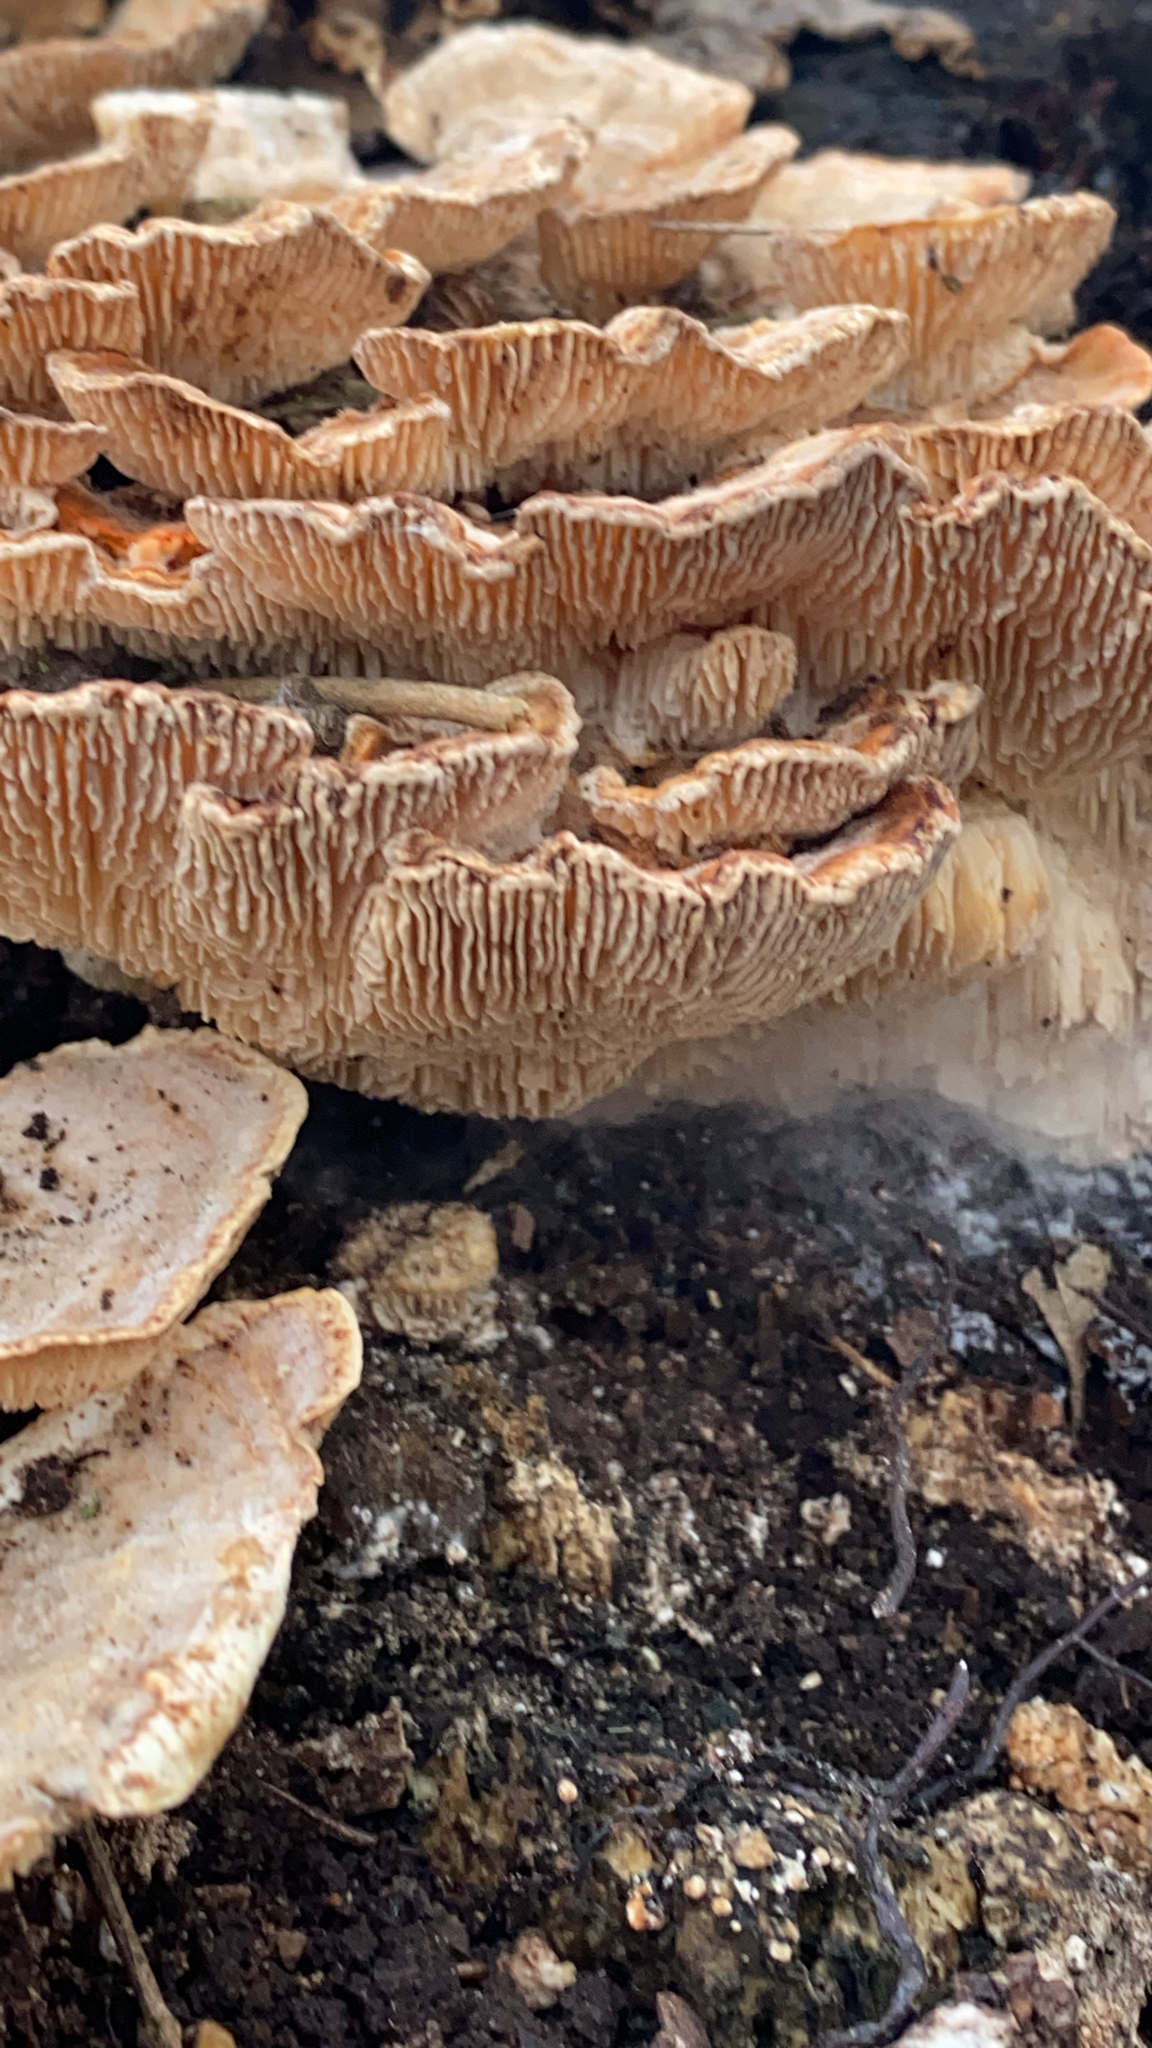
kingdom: Fungi
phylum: Basidiomycota
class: Agaricomycetes
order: Polyporales
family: Polyporaceae
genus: Lenzites
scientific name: Lenzites betulinus
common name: Birch mazegill
